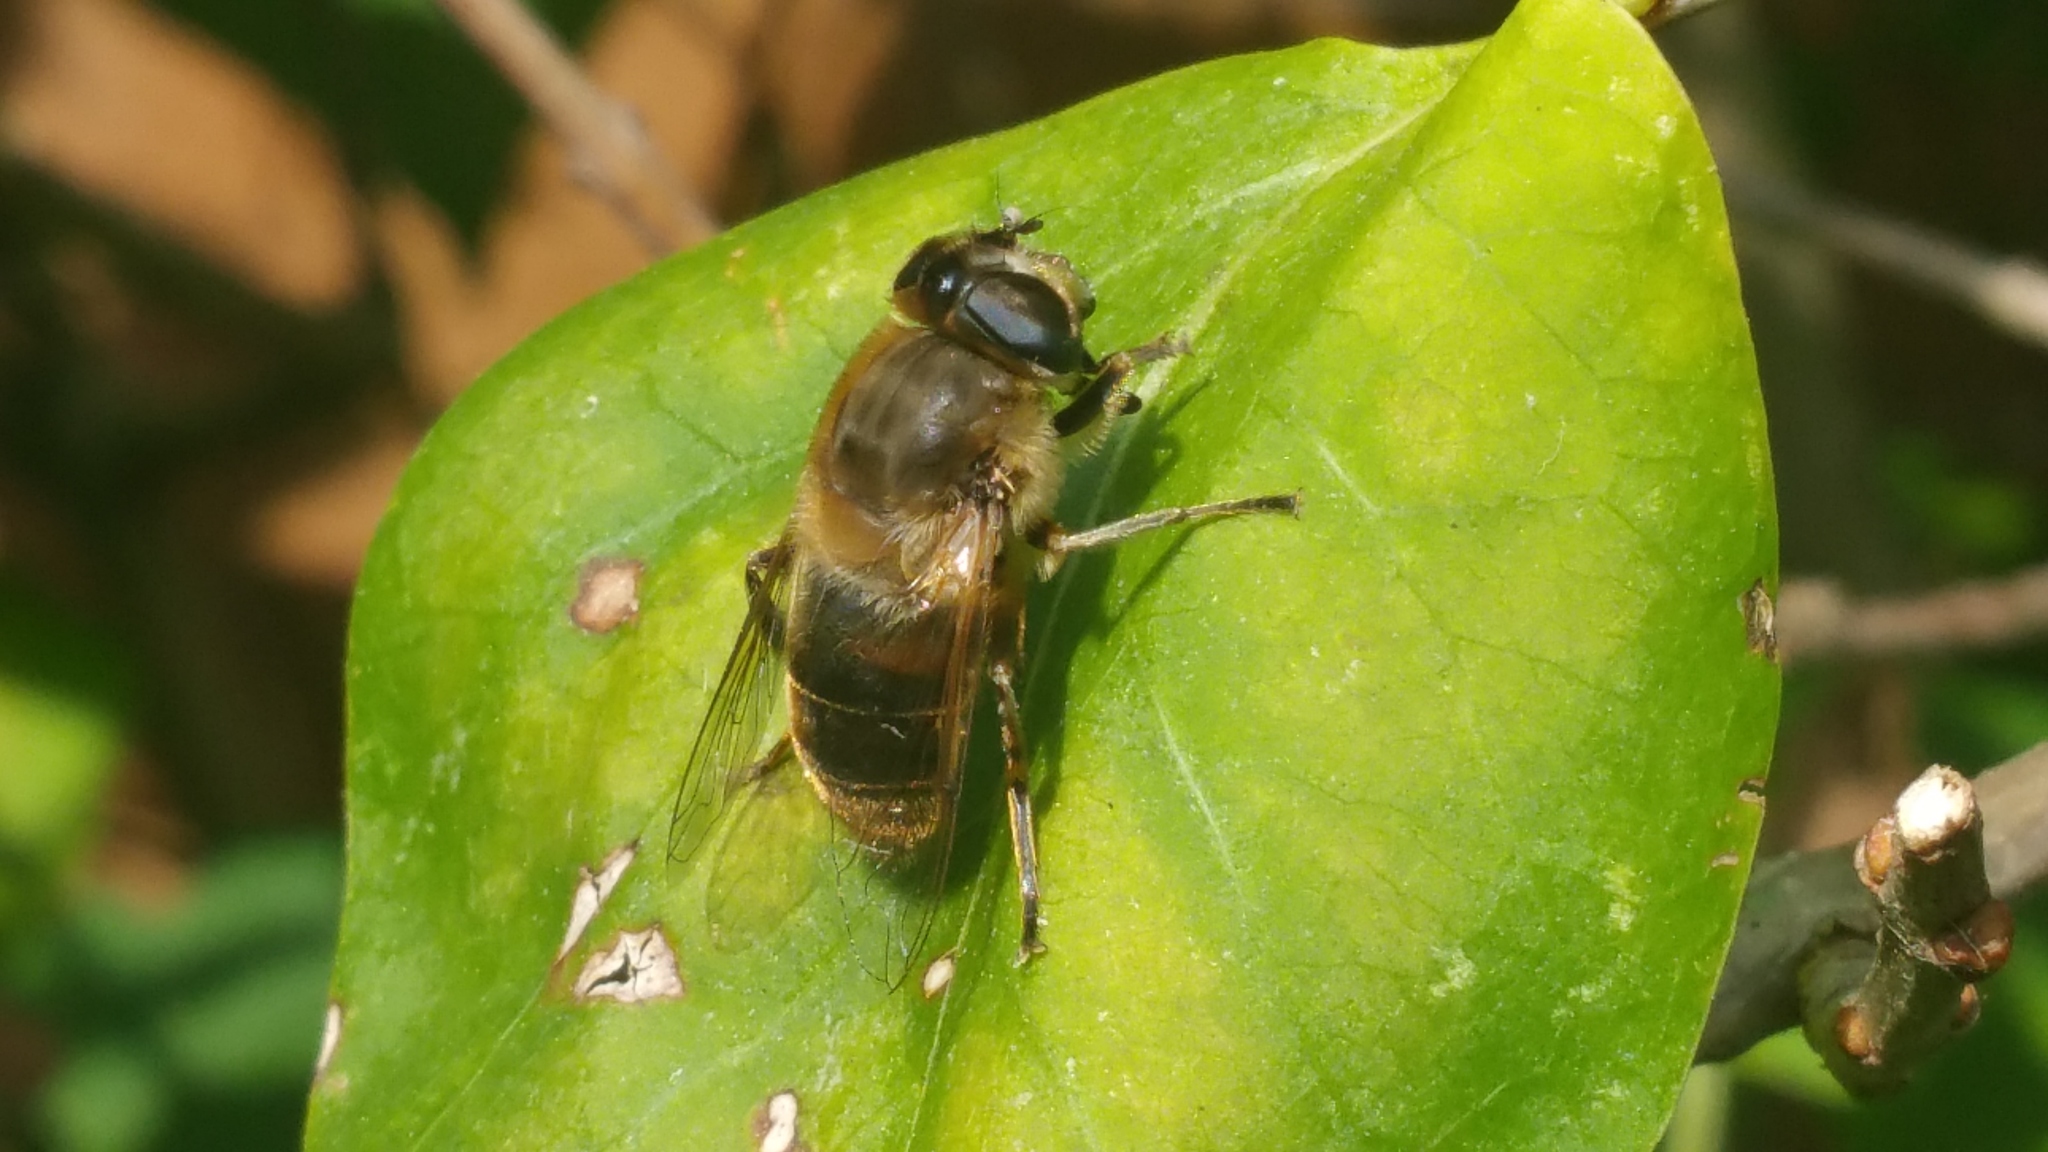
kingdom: Animalia
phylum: Arthropoda
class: Insecta
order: Diptera
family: Syrphidae
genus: Eristalis
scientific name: Eristalis tenax
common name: Drone fly
